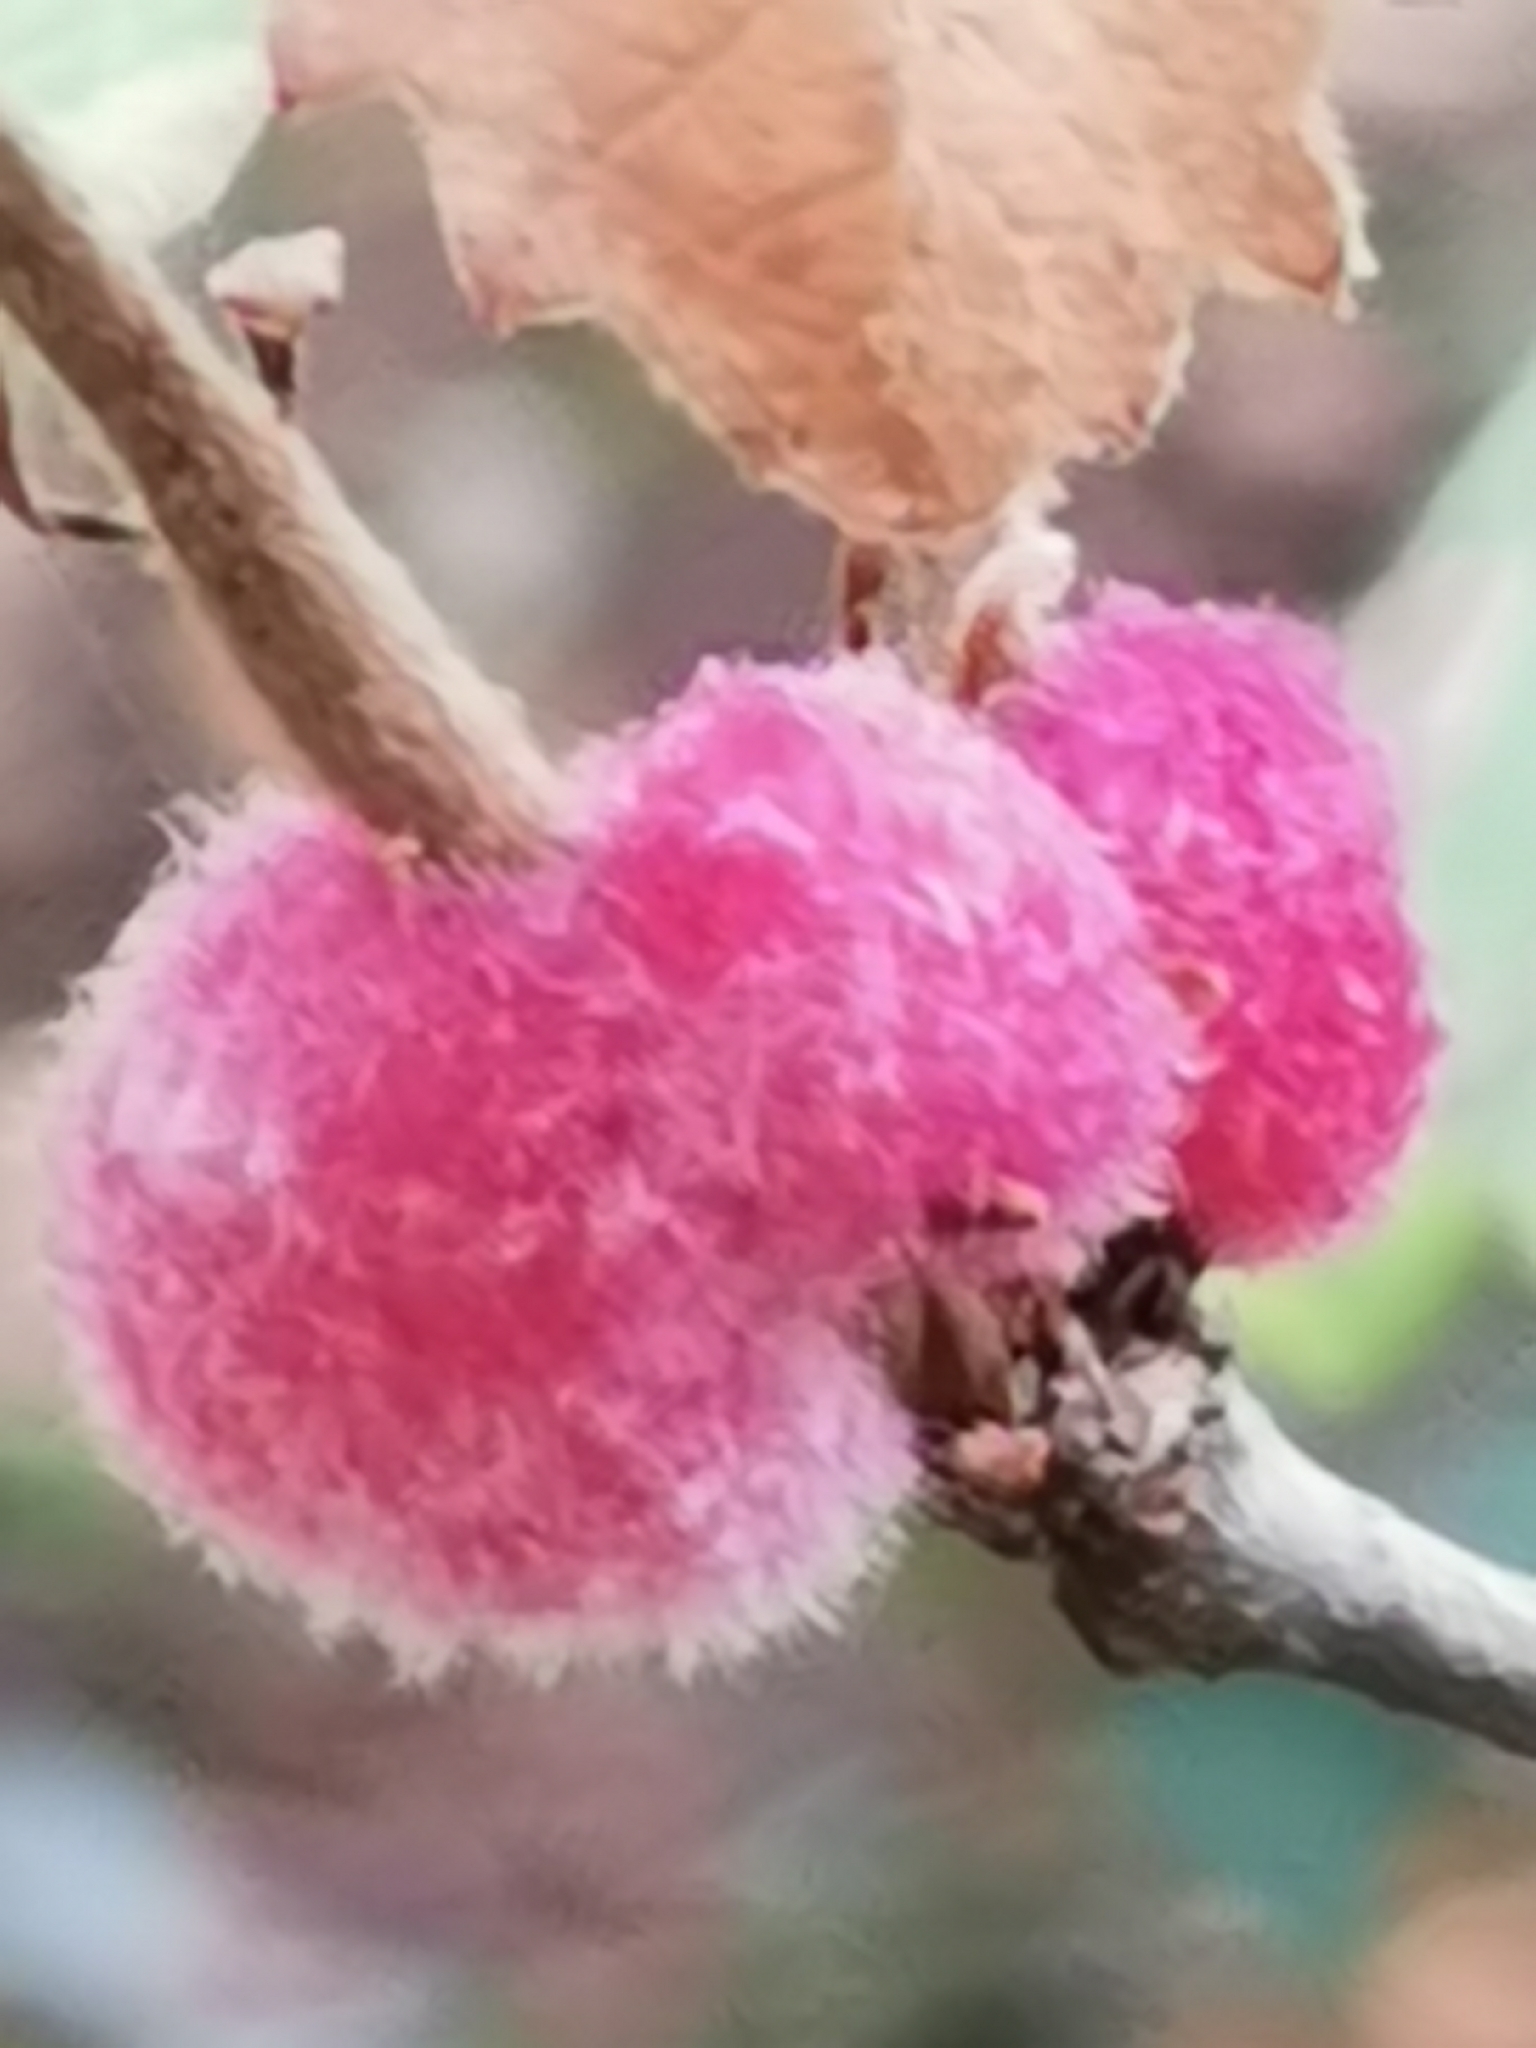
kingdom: Animalia
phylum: Arthropoda
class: Insecta
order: Hymenoptera
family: Cynipidae
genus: Striatoandricus
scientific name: Striatoandricus furnessae
